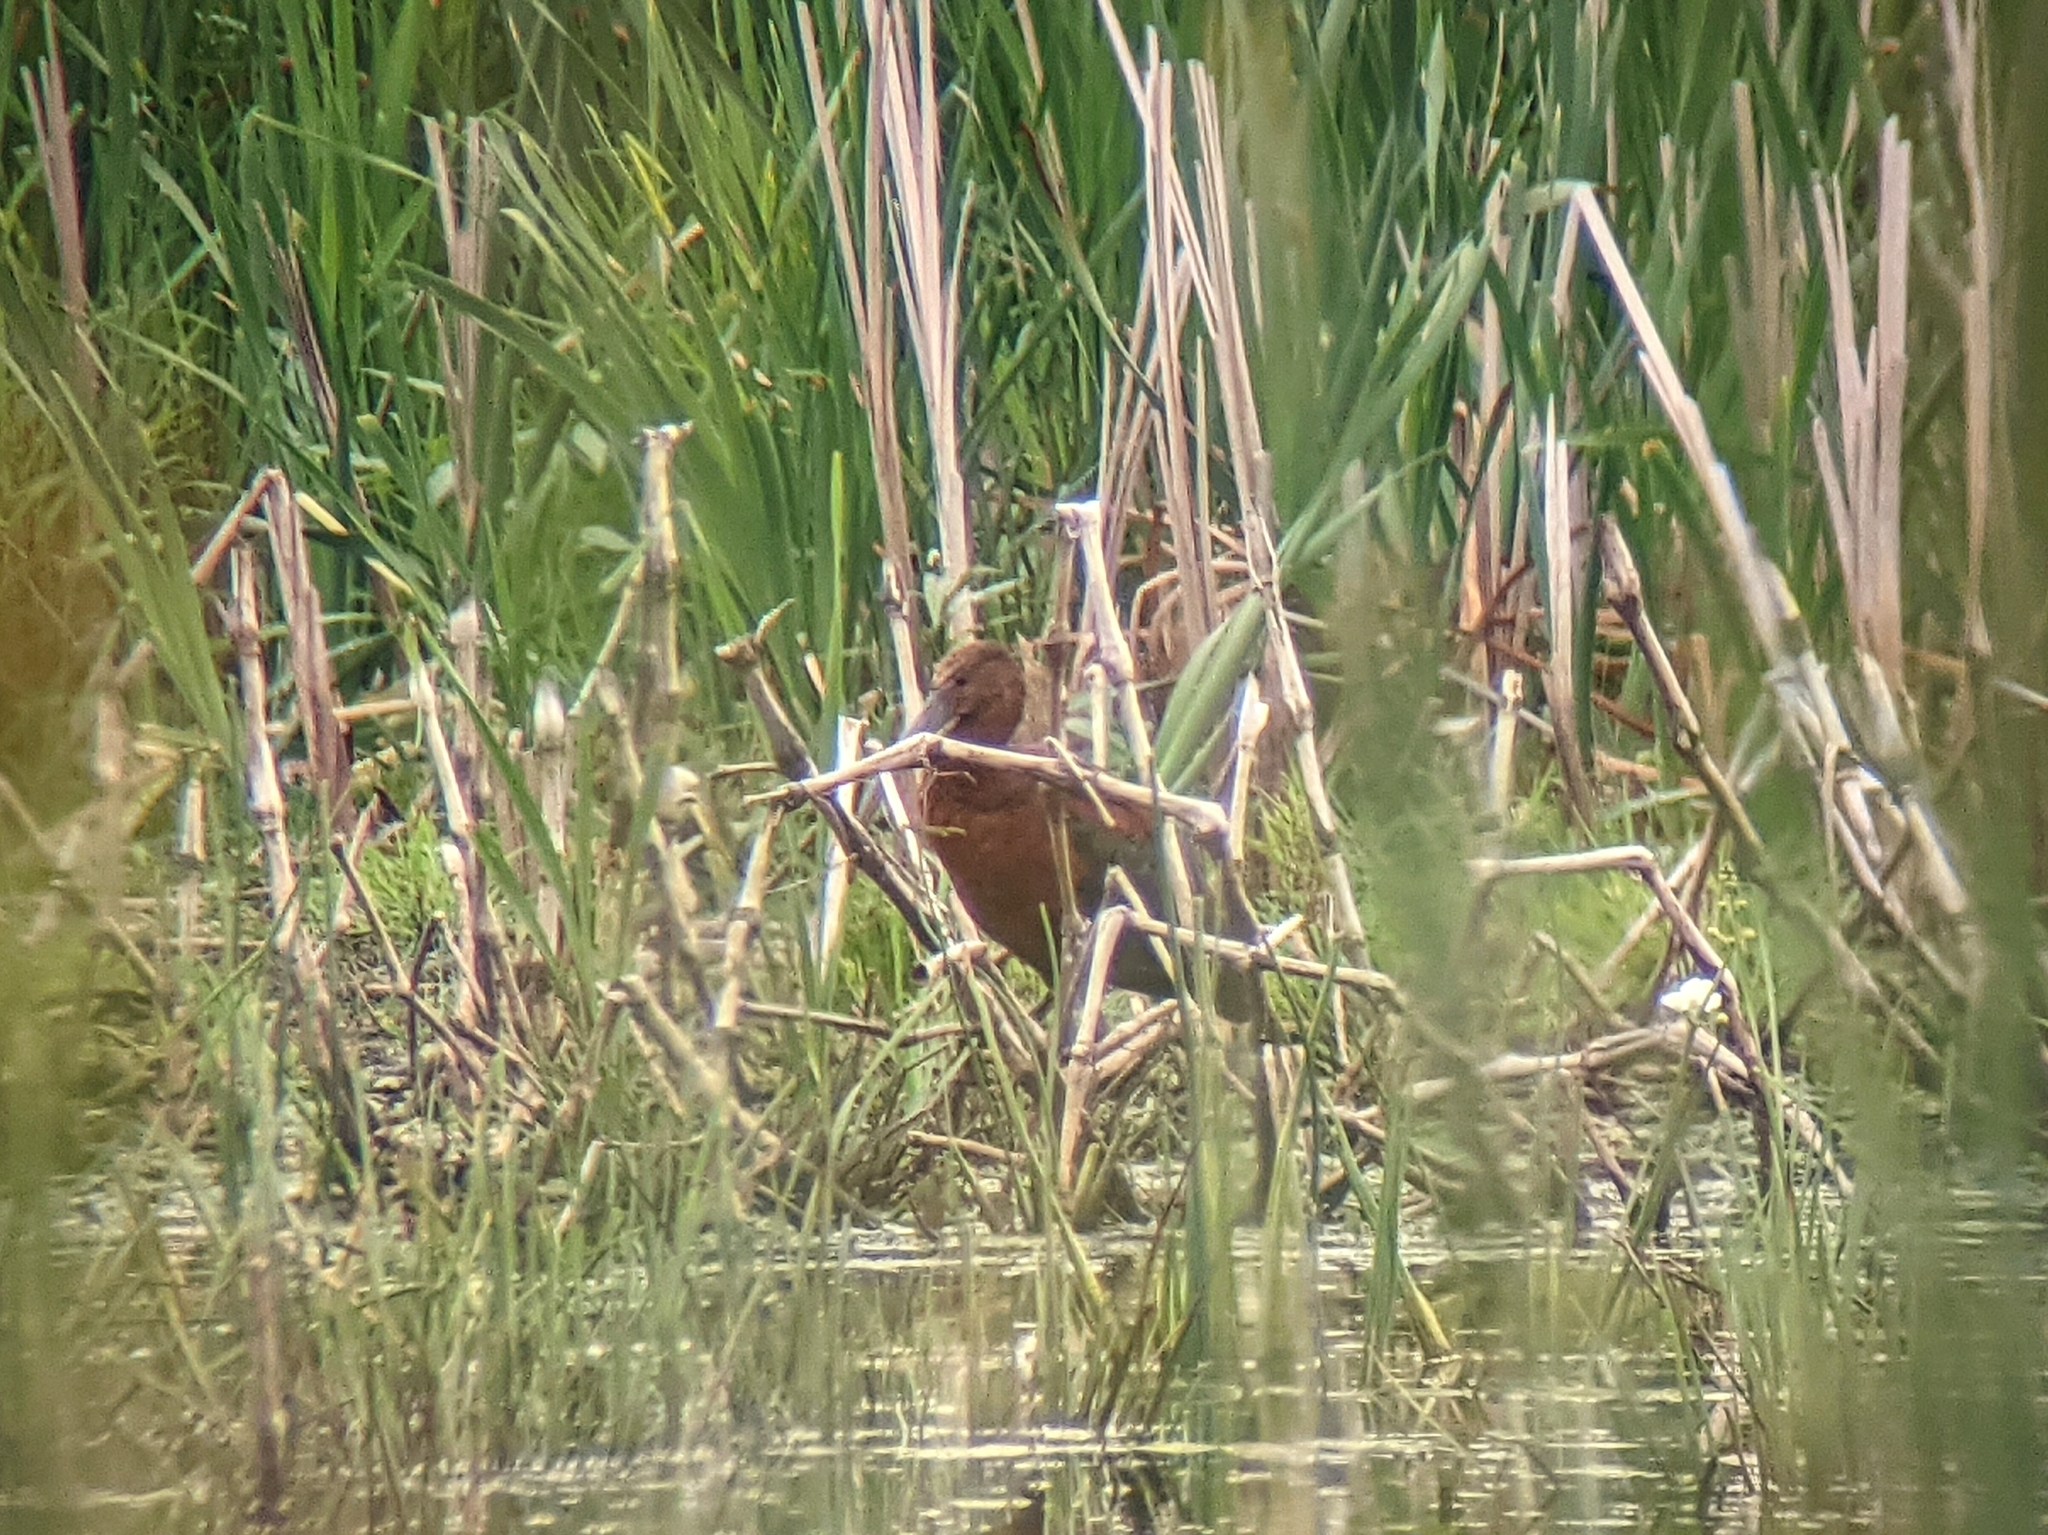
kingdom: Animalia
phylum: Chordata
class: Aves
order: Pelecaniformes
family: Threskiornithidae
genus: Plegadis
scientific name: Plegadis chihi
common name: White-faced ibis
